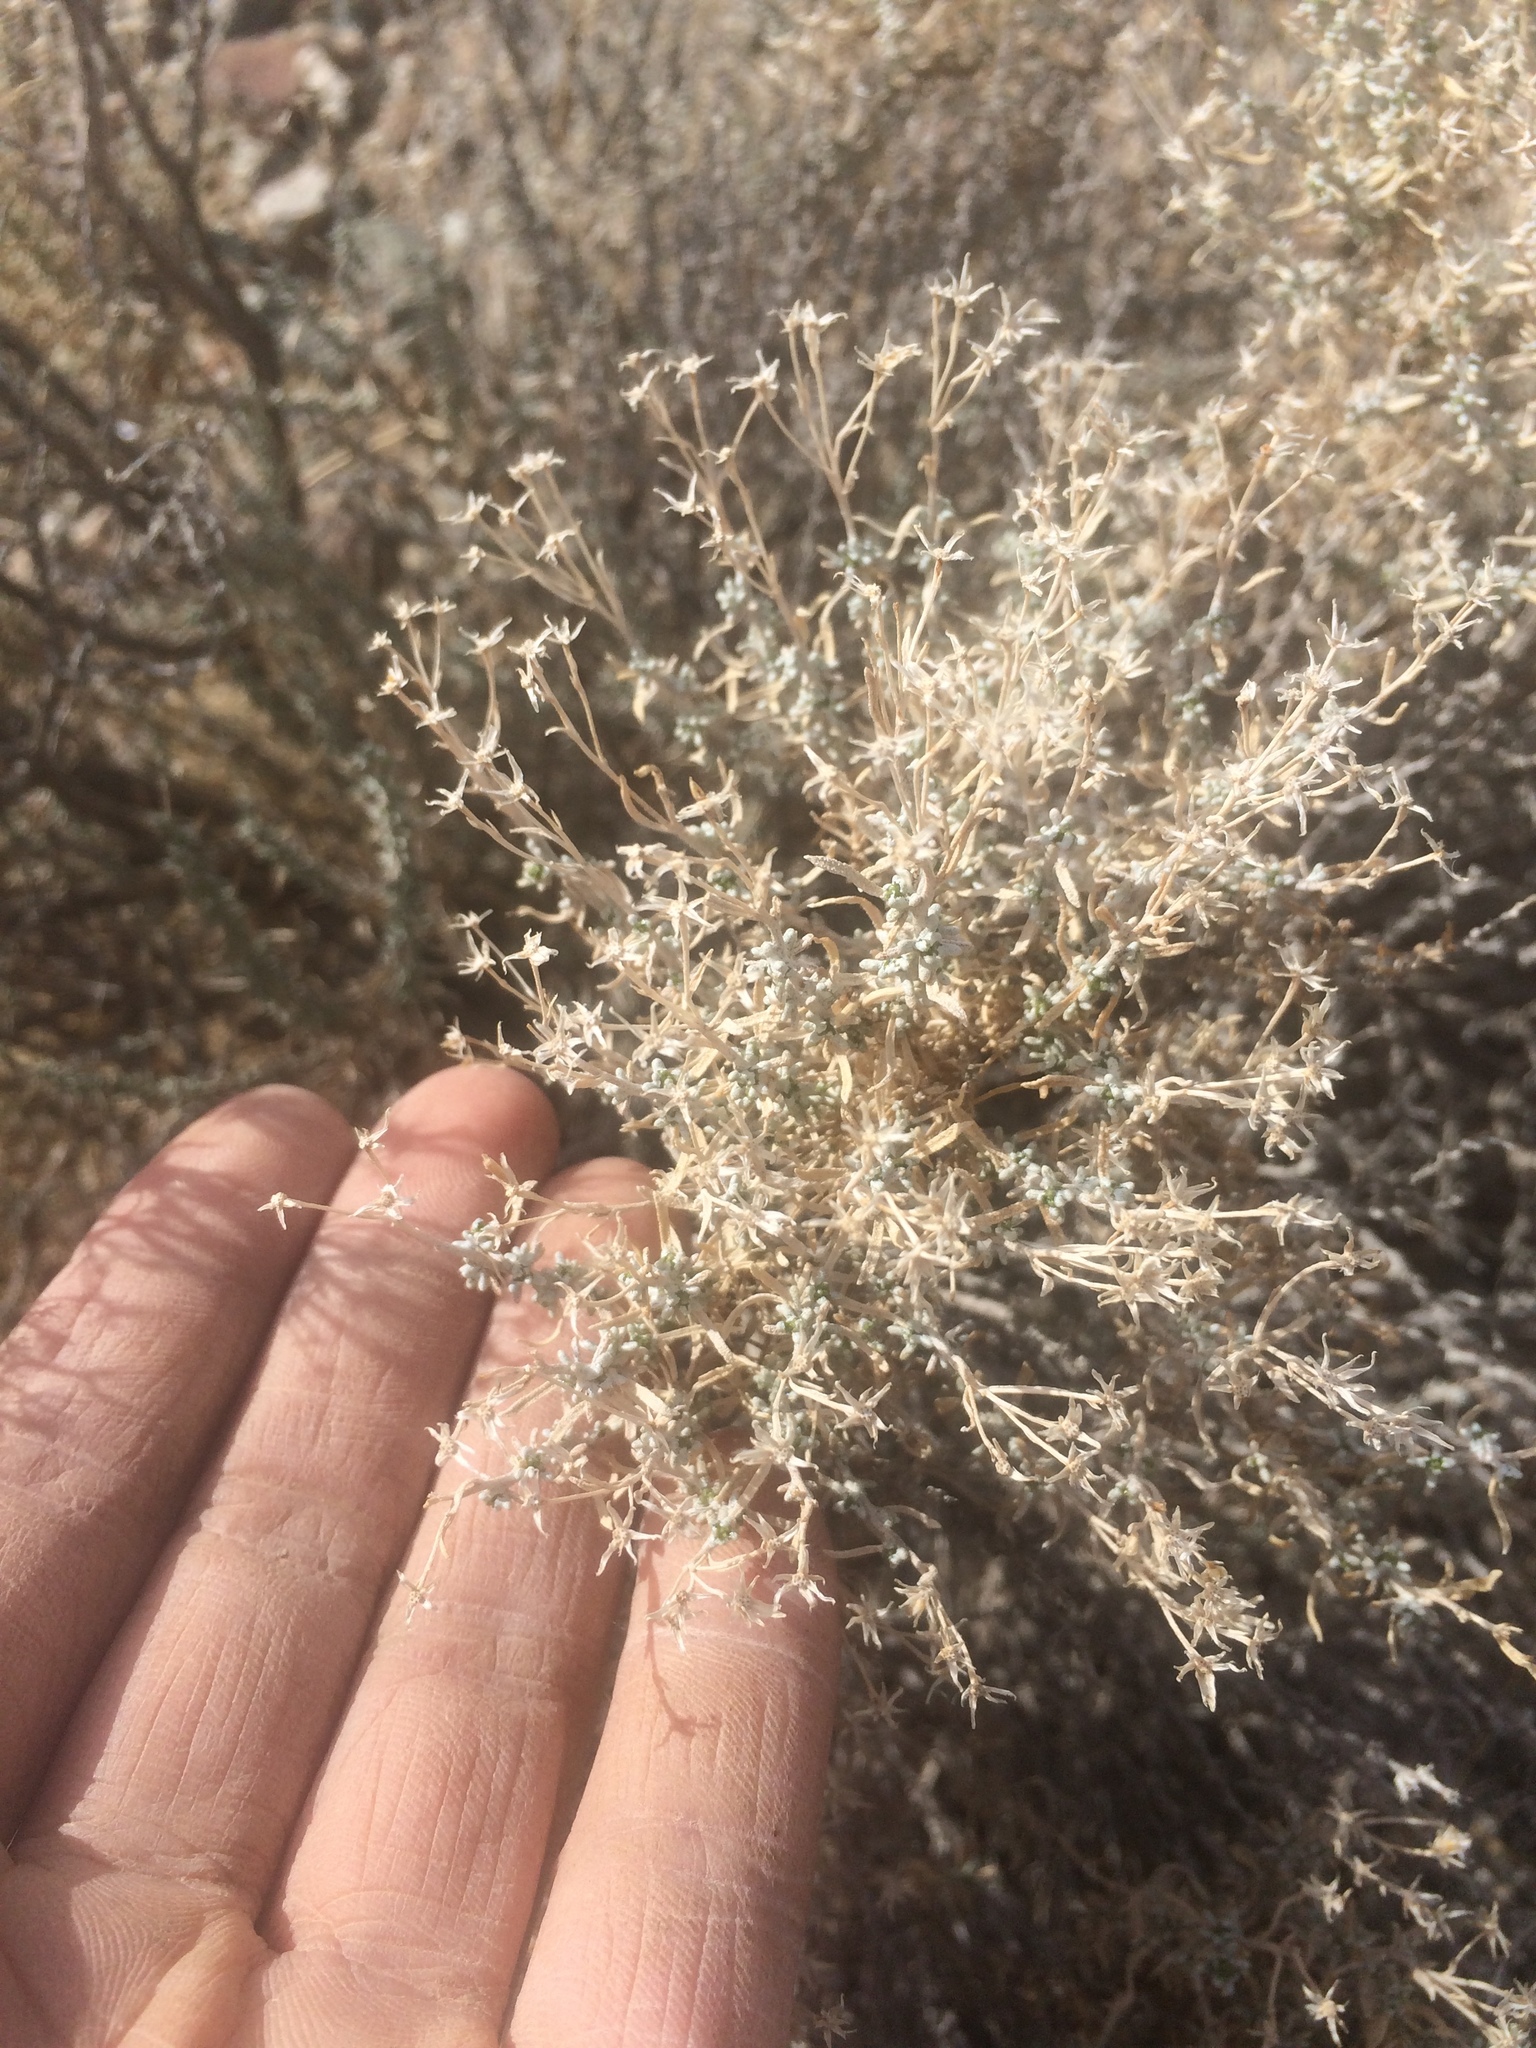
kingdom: Plantae
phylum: Tracheophyta
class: Magnoliopsida
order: Asterales
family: Asteraceae
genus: Ericameria
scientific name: Ericameria cooperi
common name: Cooper's goldenbush
